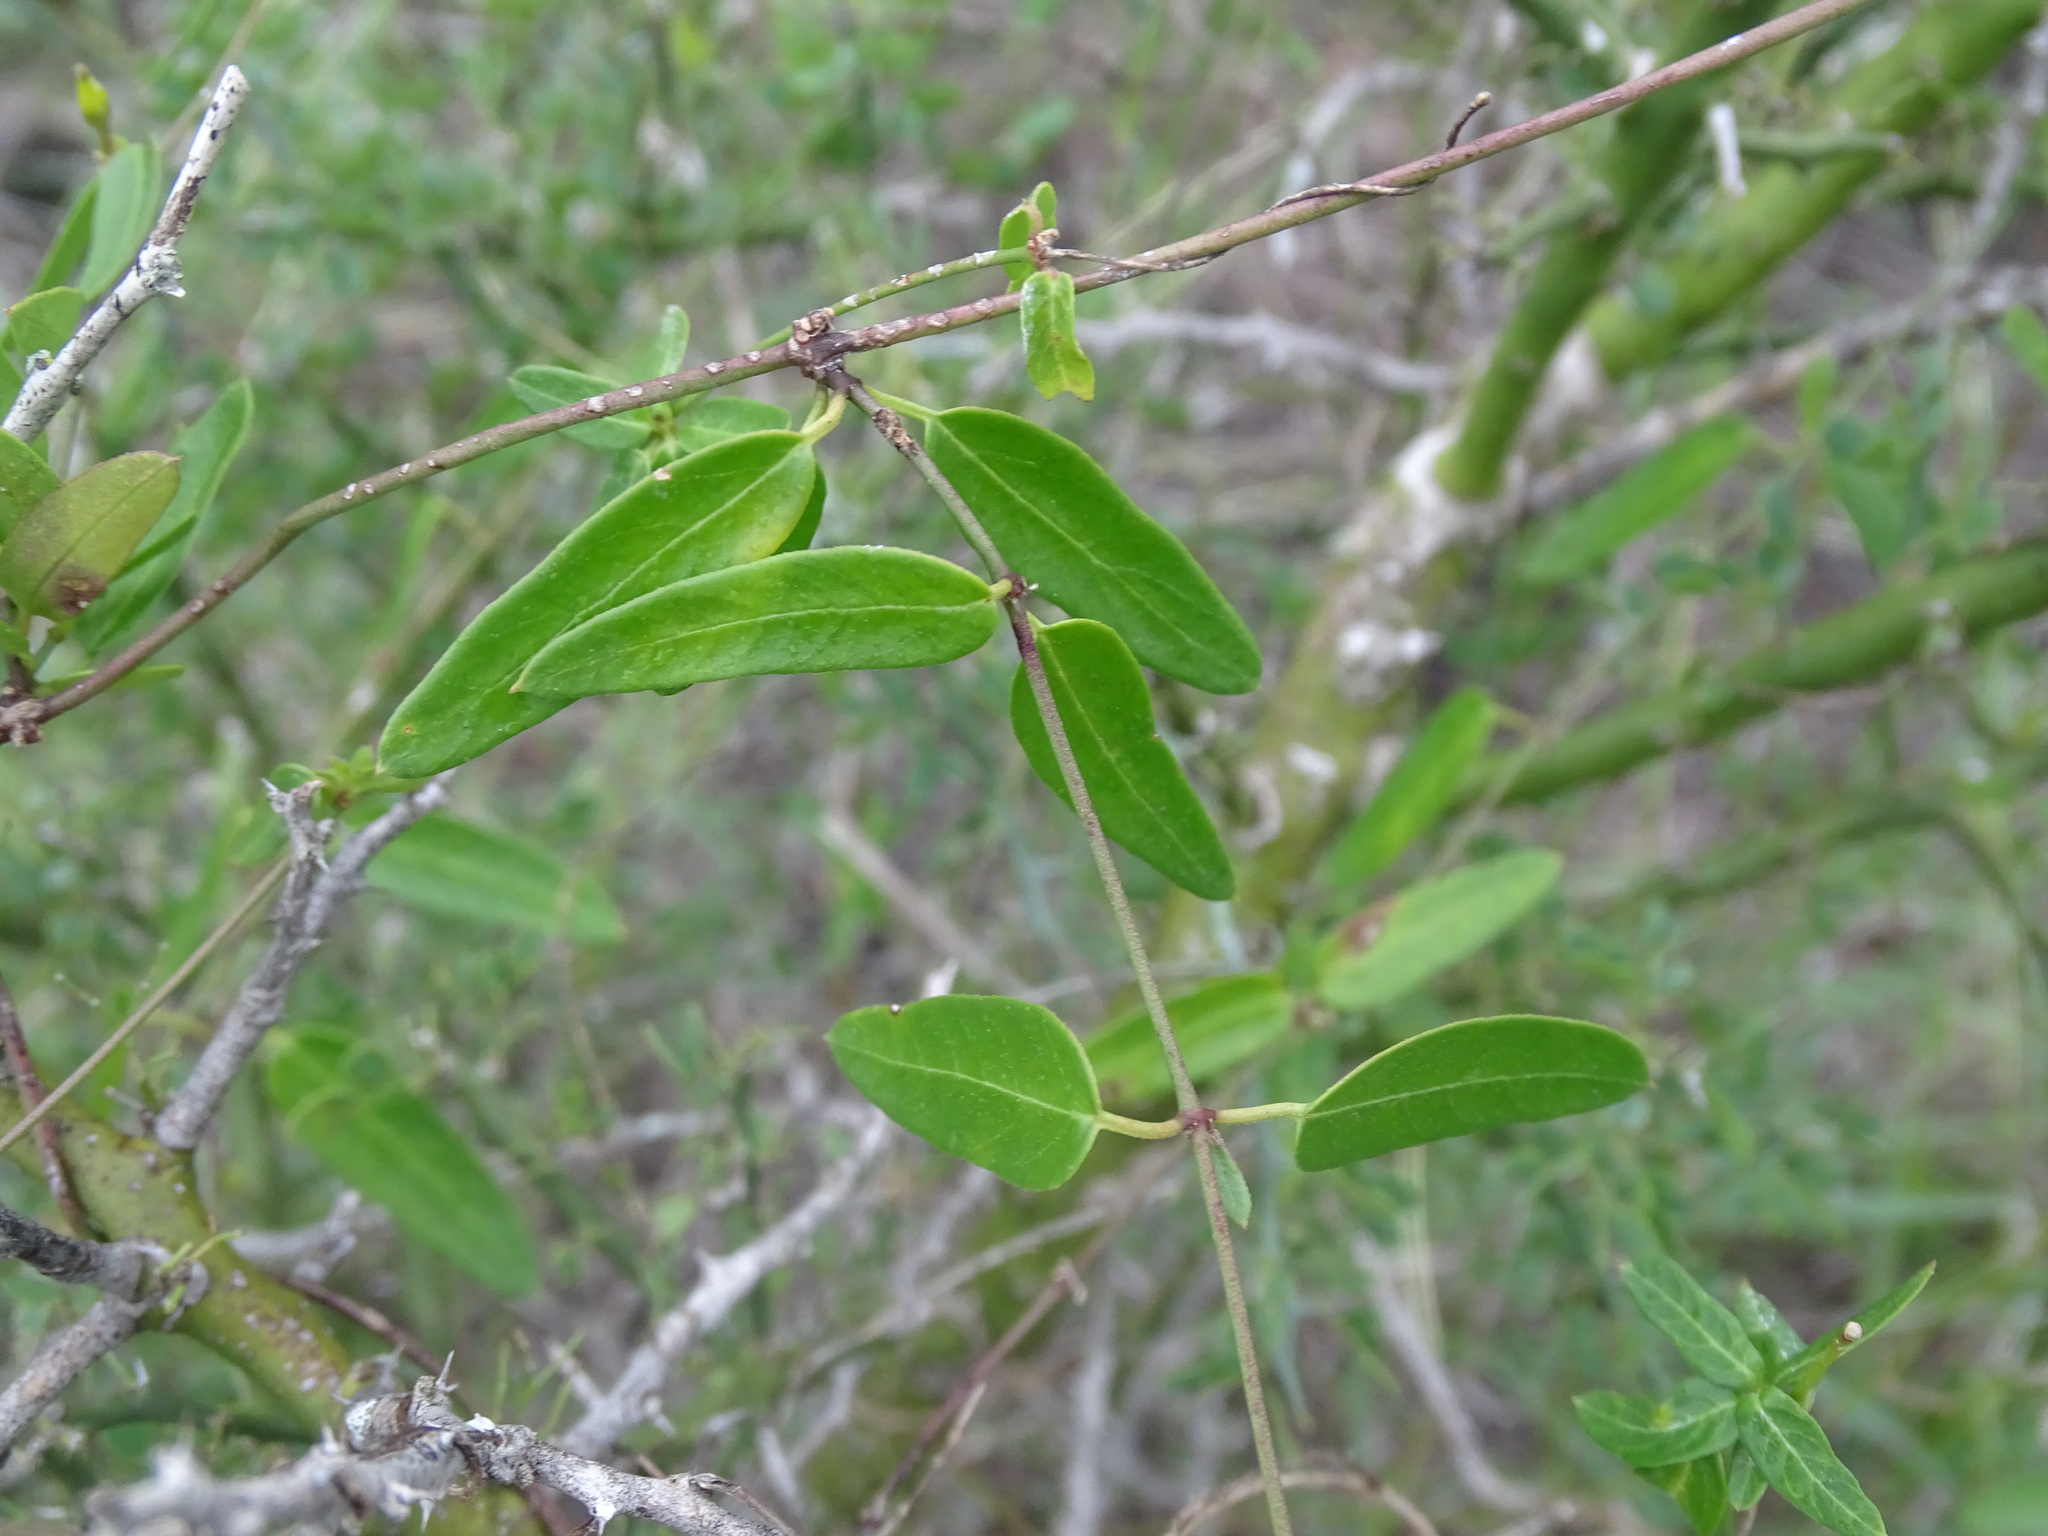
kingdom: Plantae
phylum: Tracheophyta
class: Magnoliopsida
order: Gentianales
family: Apocynaceae
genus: Metastelma
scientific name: Metastelma barbigerum
